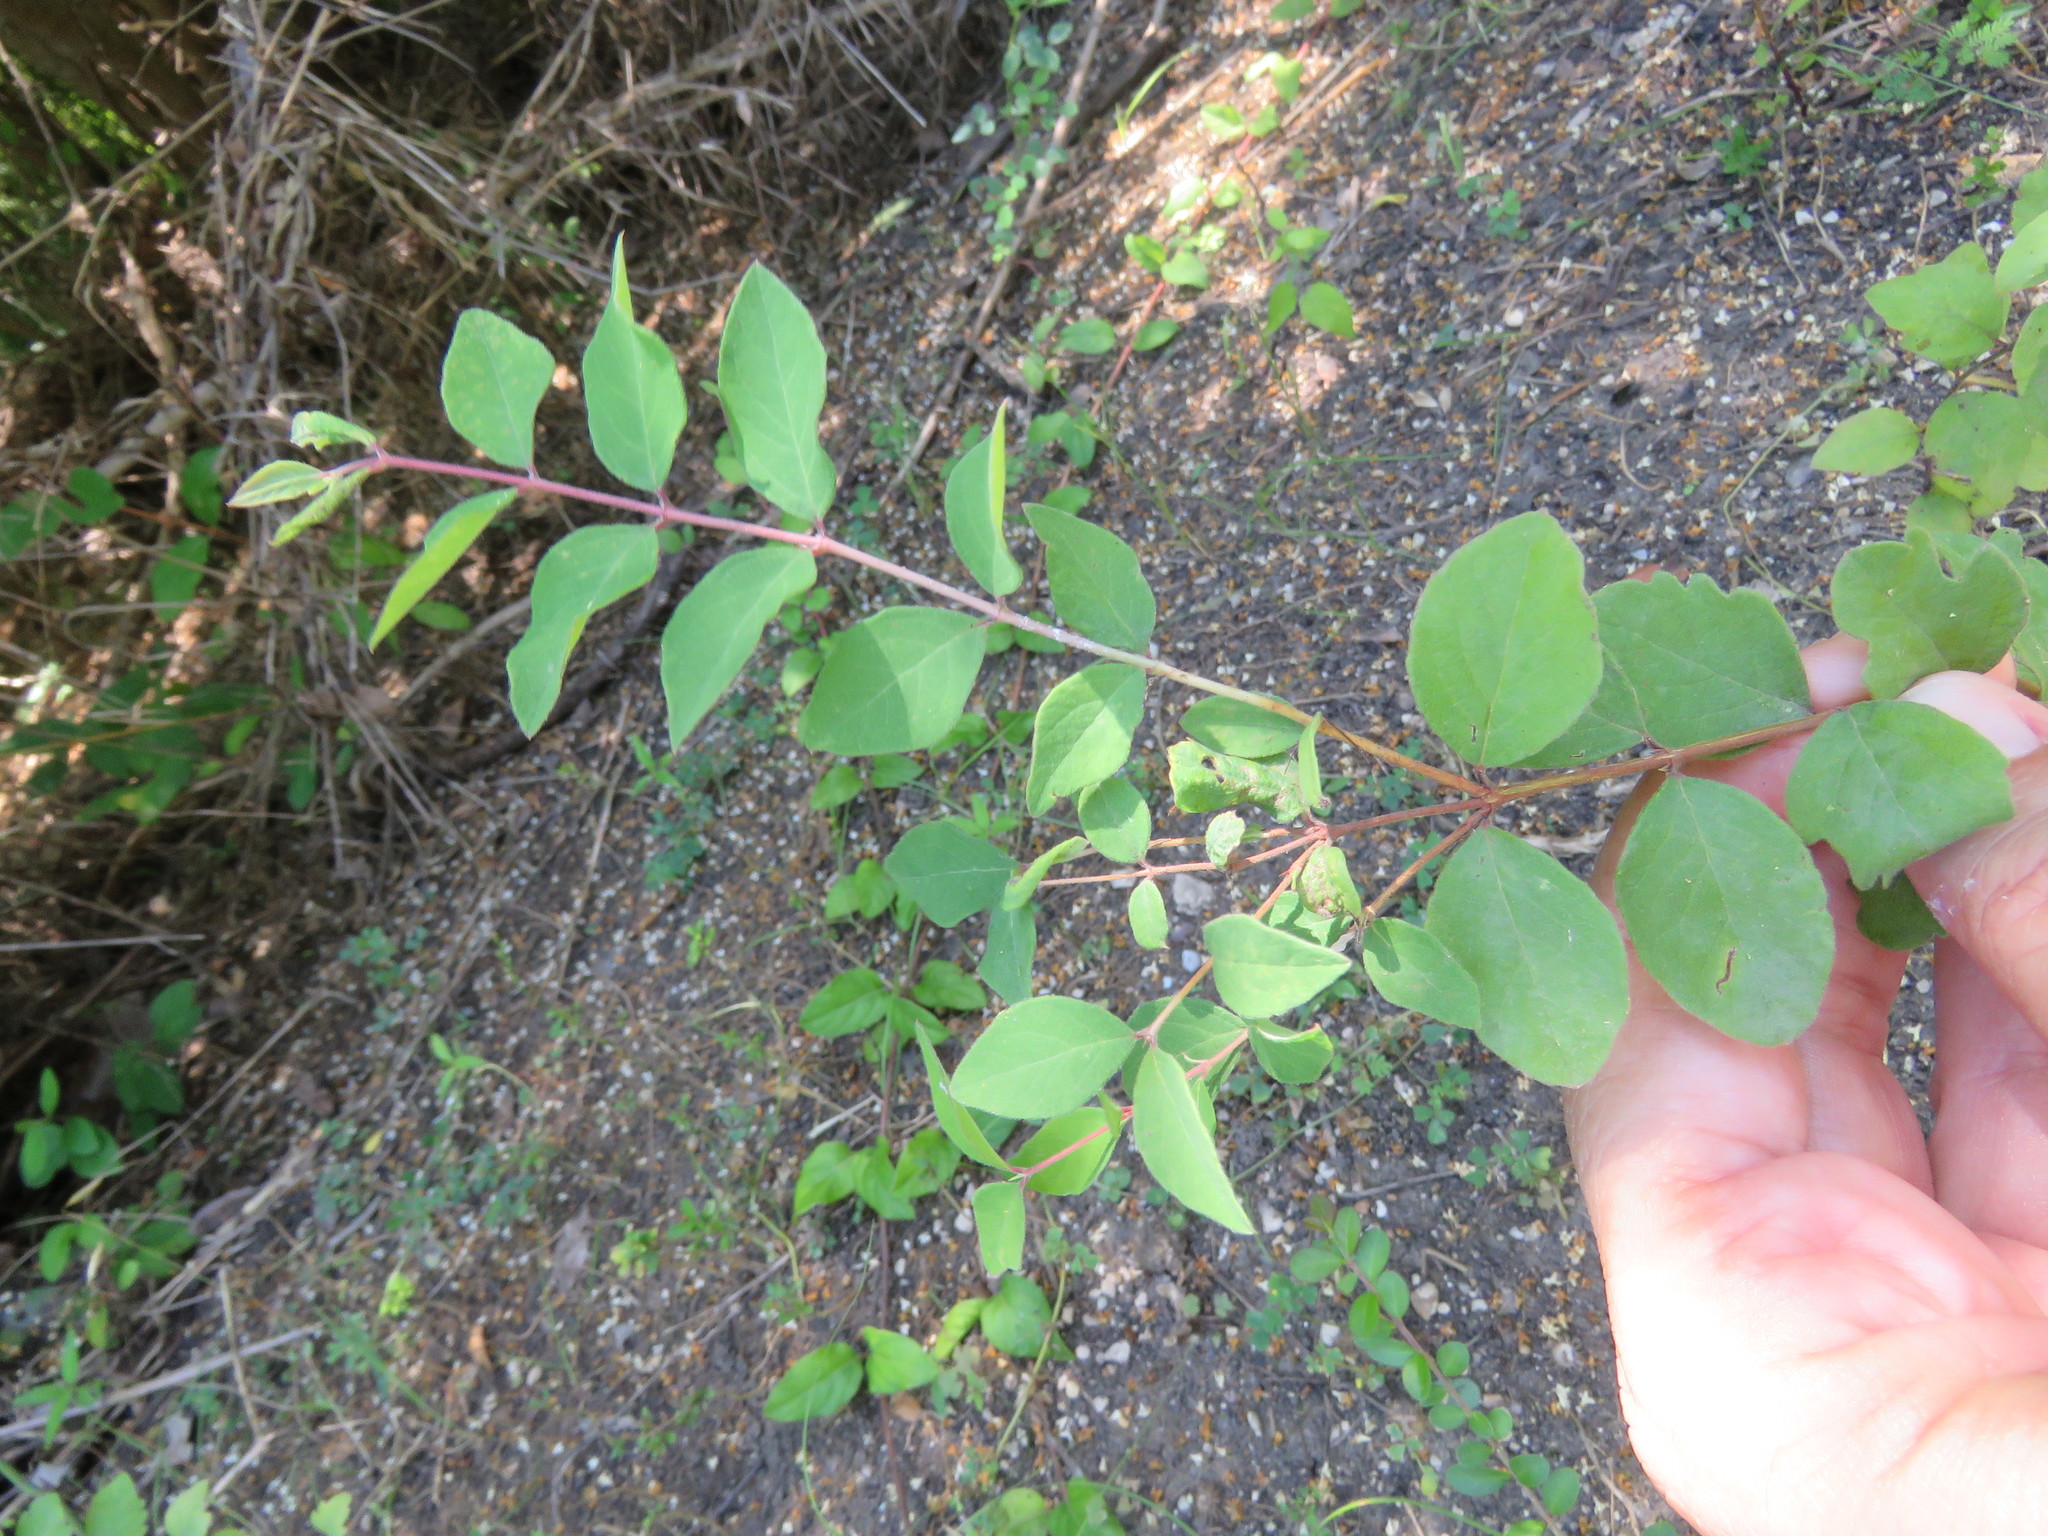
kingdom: Plantae
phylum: Tracheophyta
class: Magnoliopsida
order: Dipsacales
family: Caprifoliaceae
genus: Symphoricarpos
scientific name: Symphoricarpos orbiculatus
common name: Coralberry
